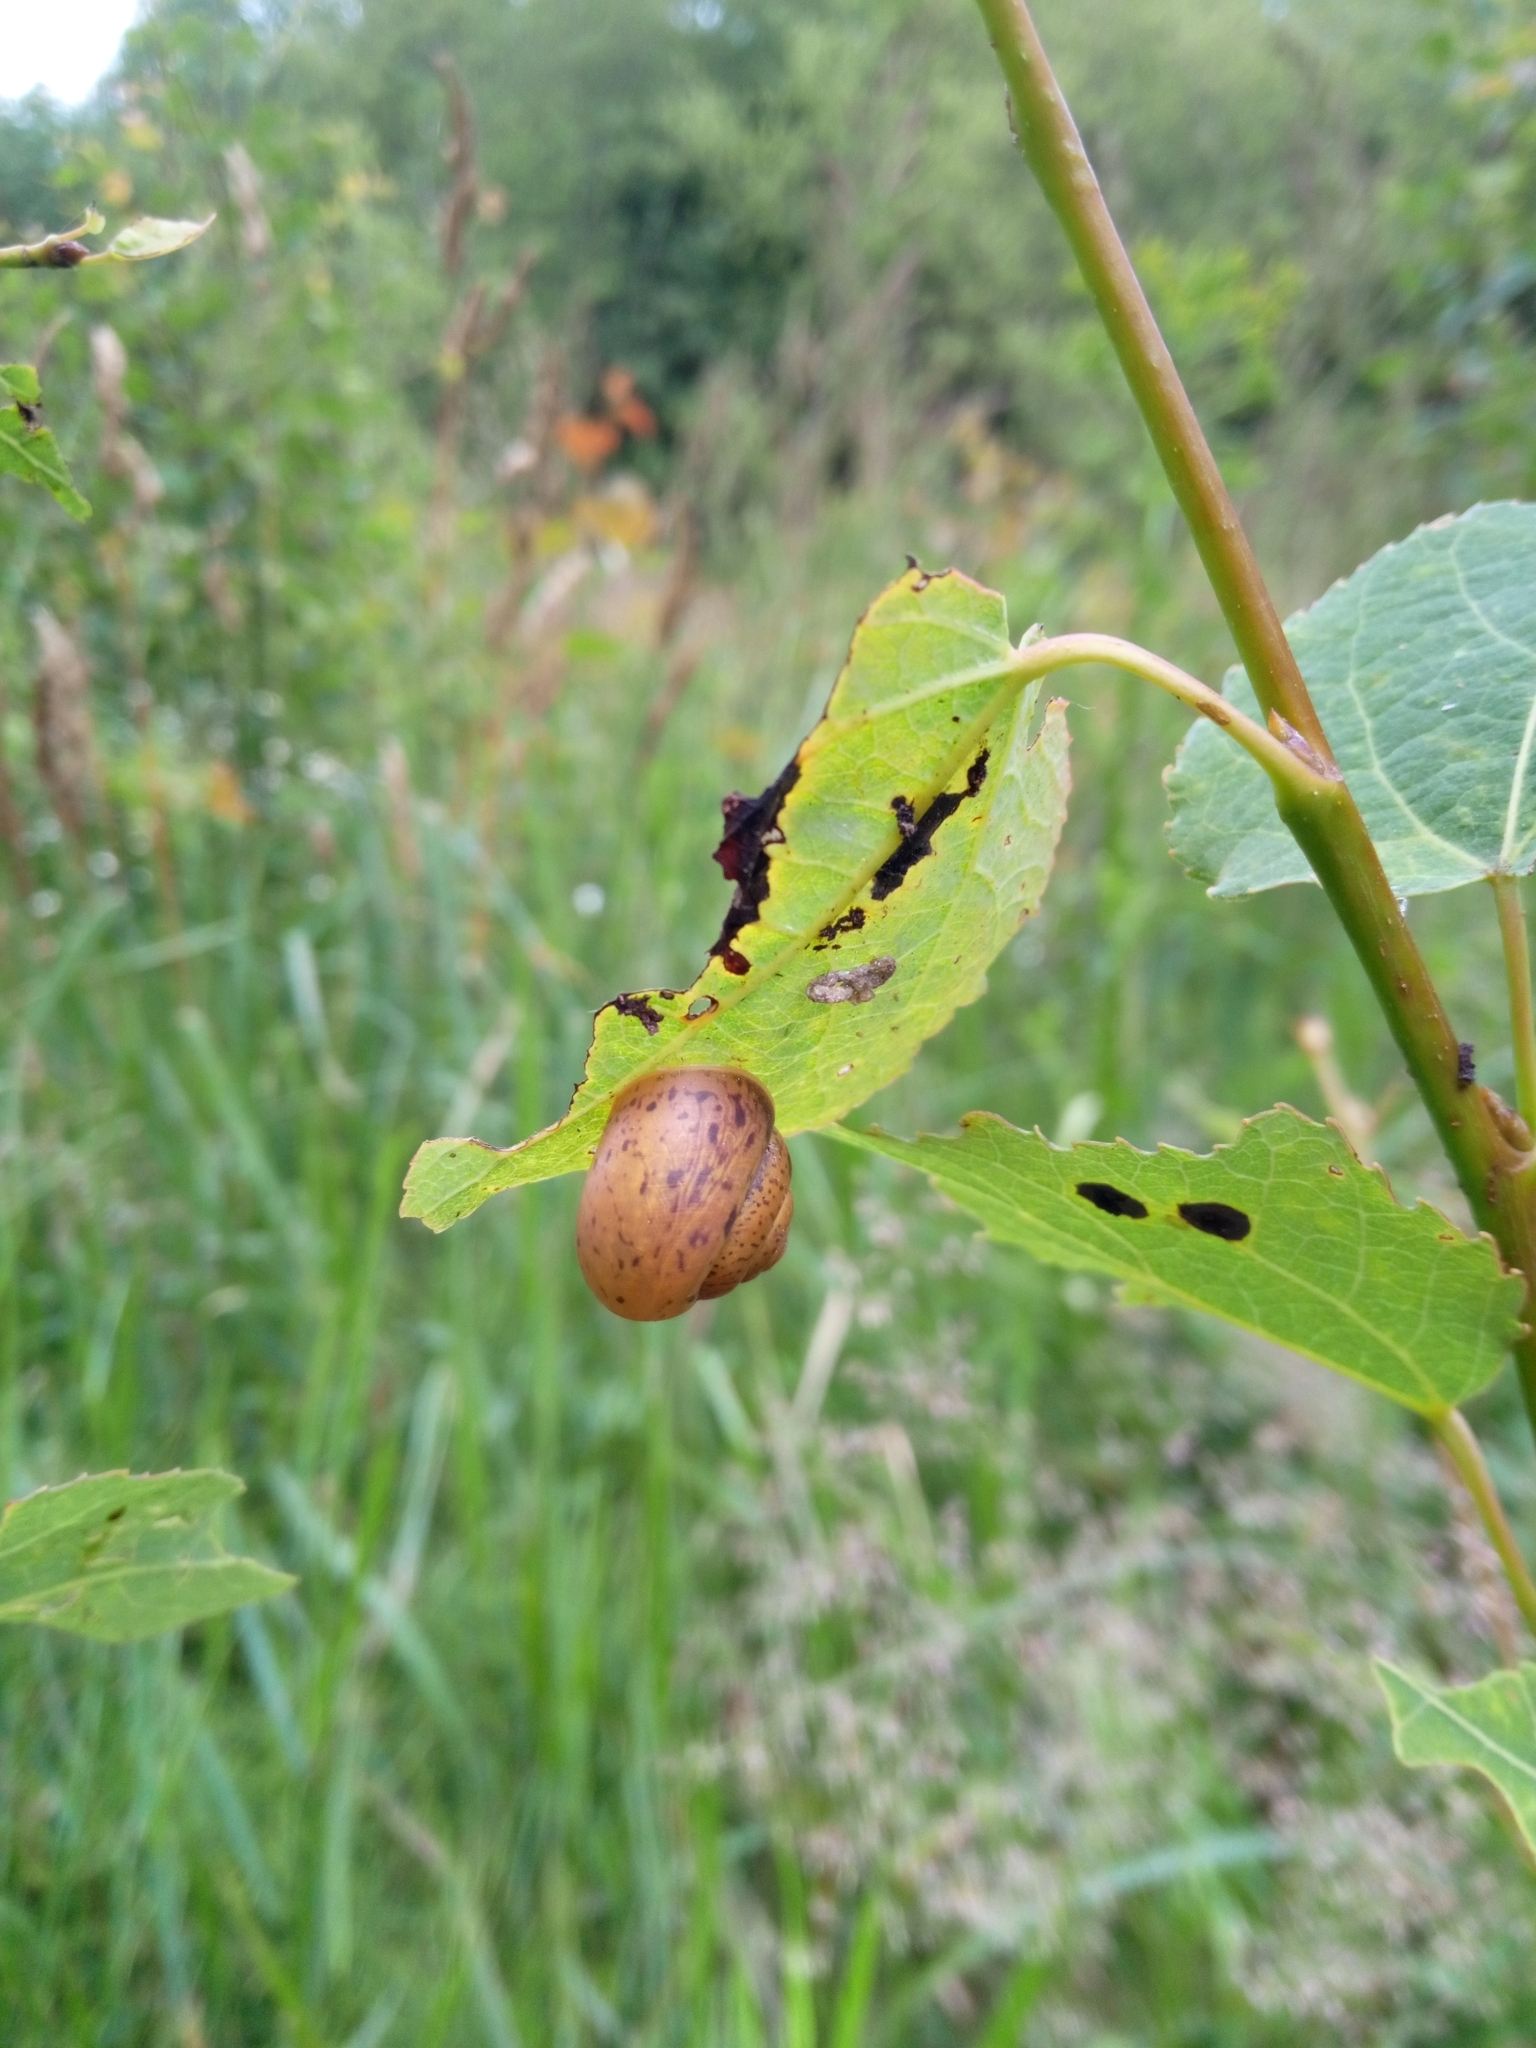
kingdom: Animalia
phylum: Mollusca
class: Gastropoda
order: Stylommatophora
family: Camaenidae
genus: Fruticicola
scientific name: Fruticicola fruticum
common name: Bush snail
